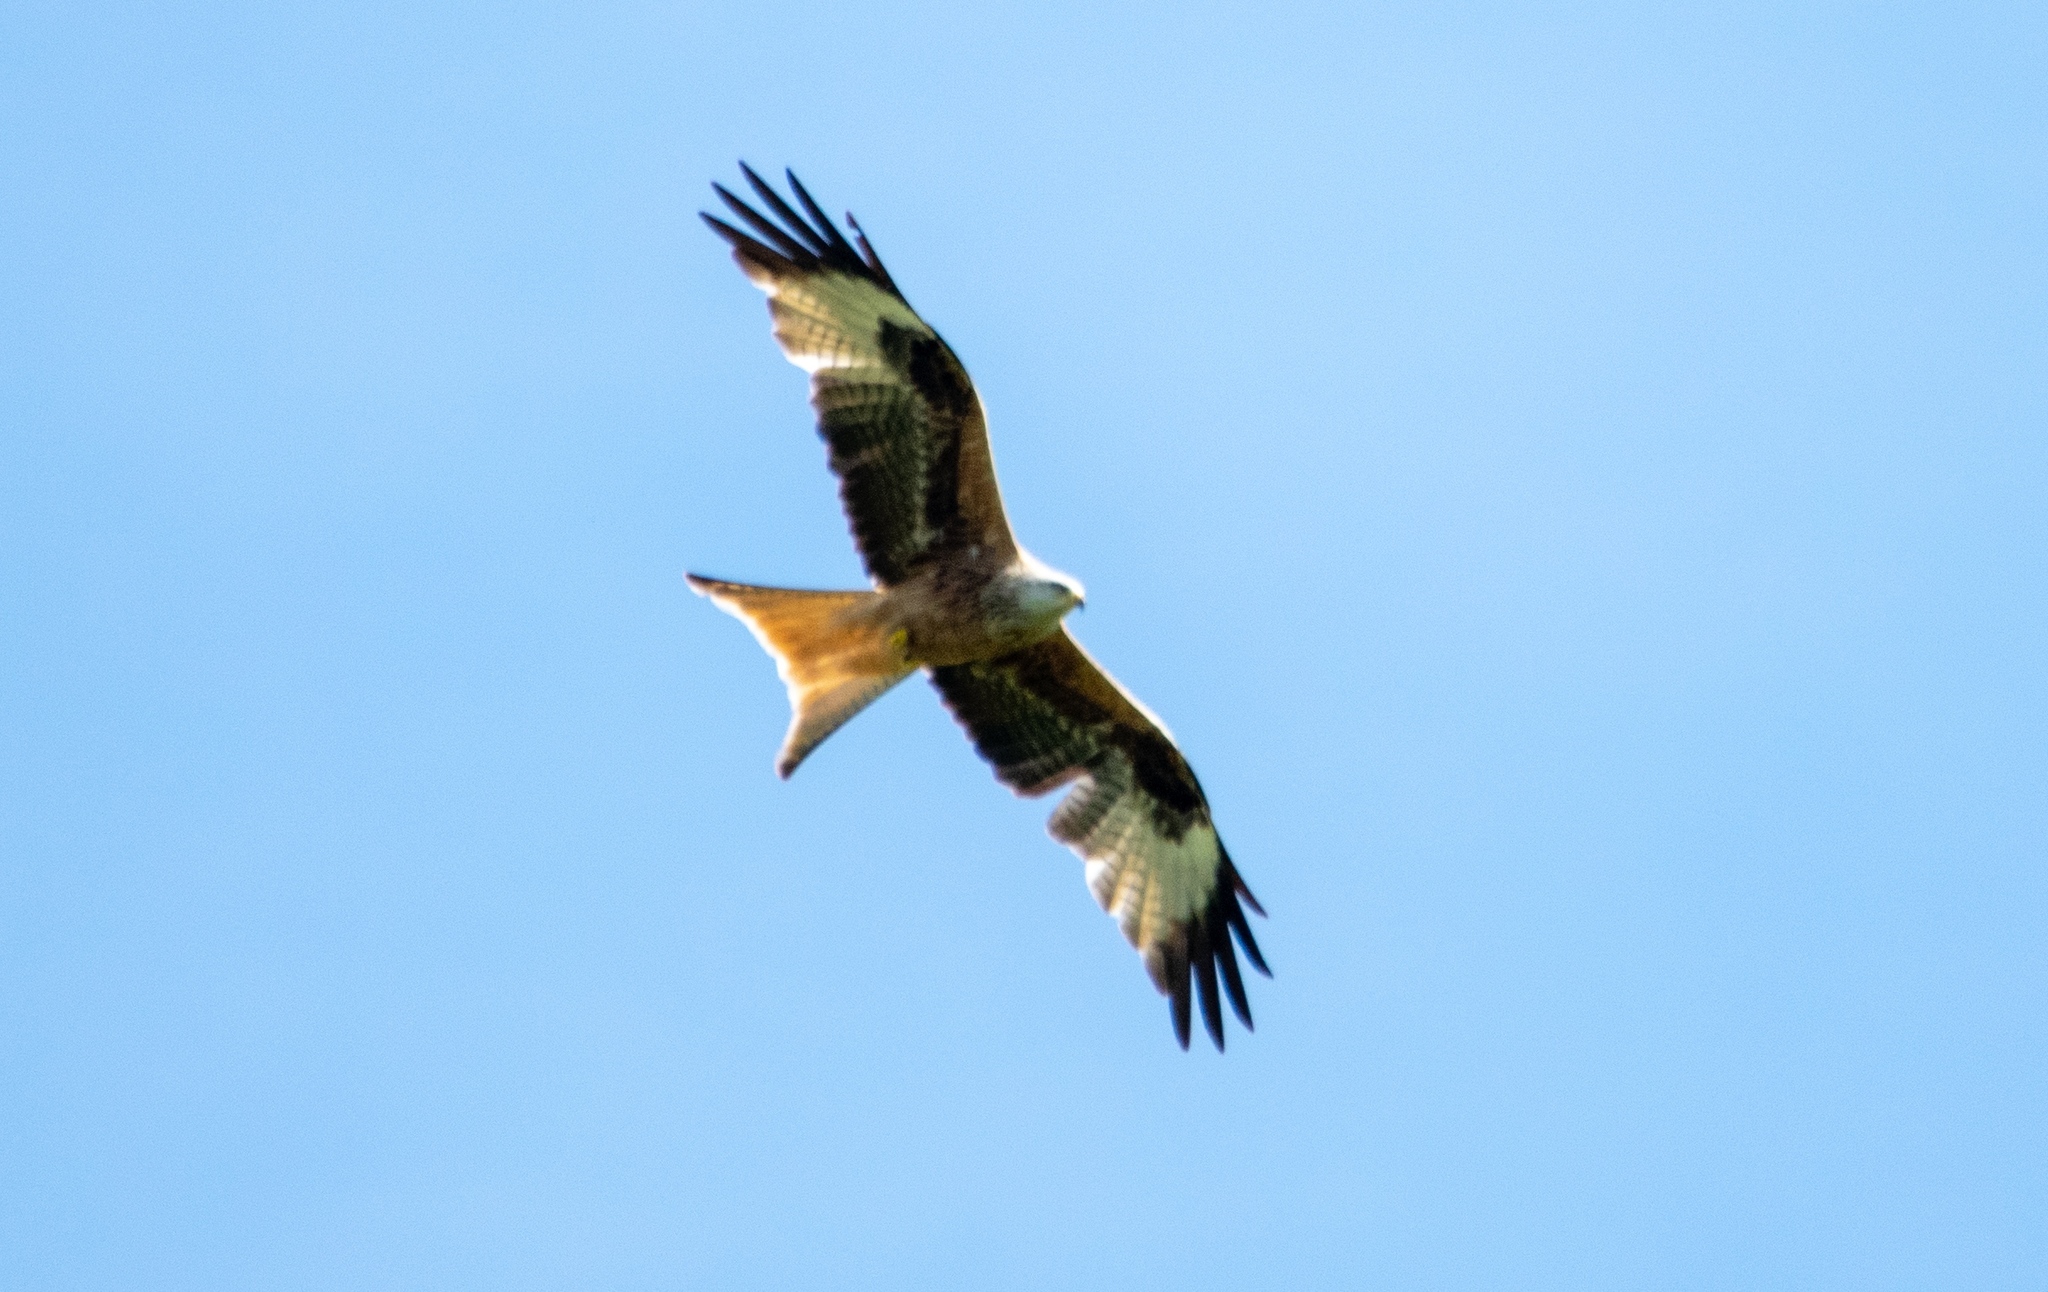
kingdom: Animalia
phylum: Chordata
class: Aves
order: Accipitriformes
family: Accipitridae
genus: Milvus
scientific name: Milvus milvus
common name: Red kite
